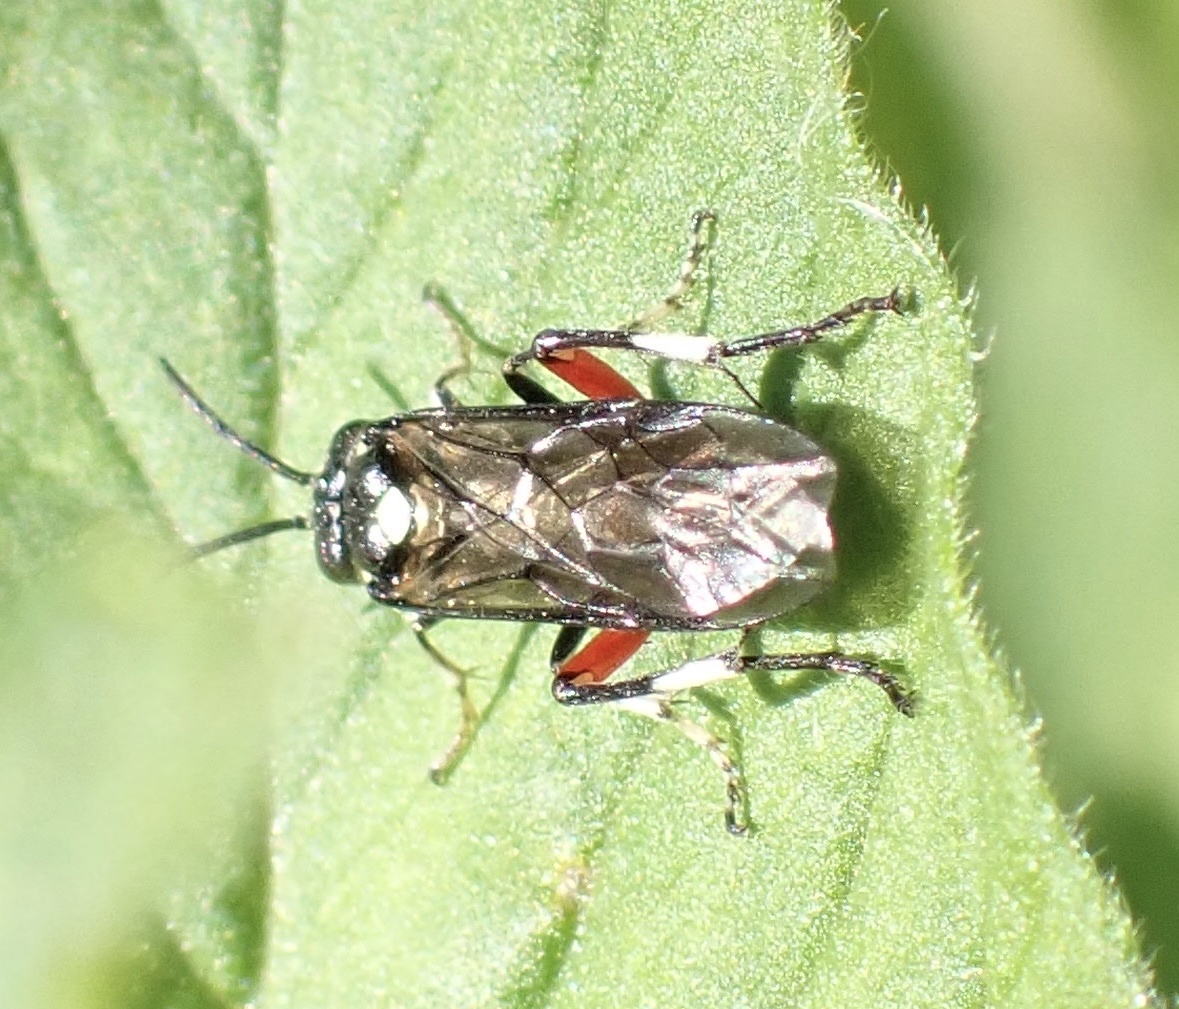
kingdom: Animalia
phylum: Arthropoda
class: Insecta
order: Hymenoptera
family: Tenthredinidae
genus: Macrophya
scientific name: Macrophya punctumalbum
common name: Sawfly
